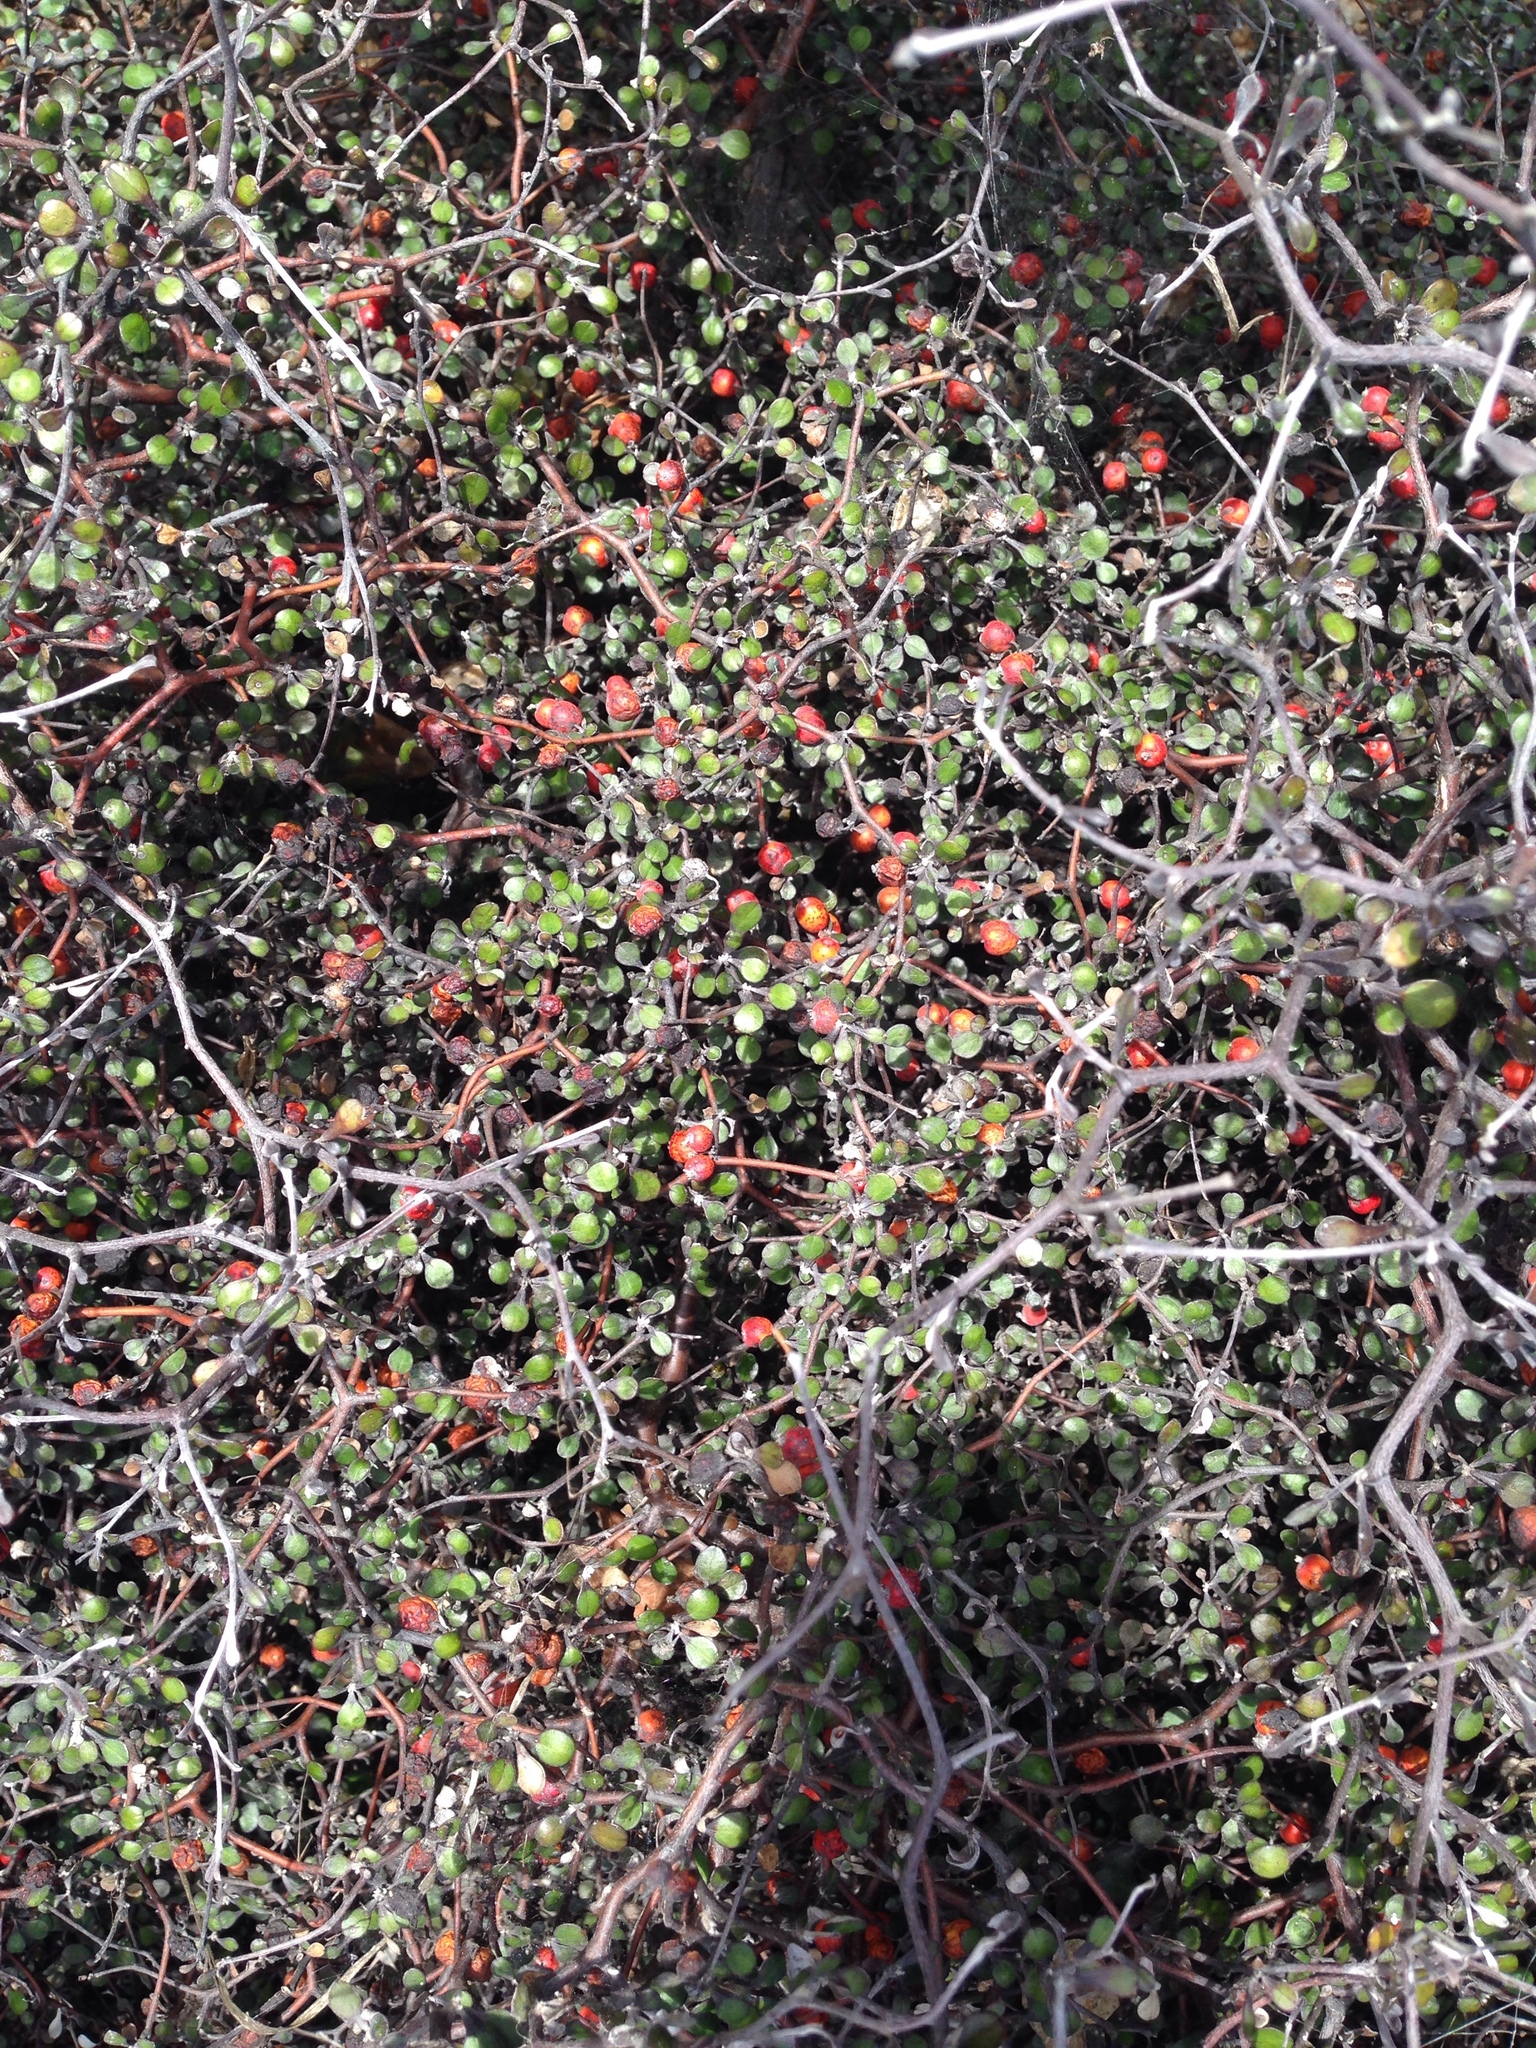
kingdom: Plantae
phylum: Tracheophyta
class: Magnoliopsida
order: Asterales
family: Argophyllaceae
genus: Corokia
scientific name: Corokia cotoneaster
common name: Wire nettingbush
